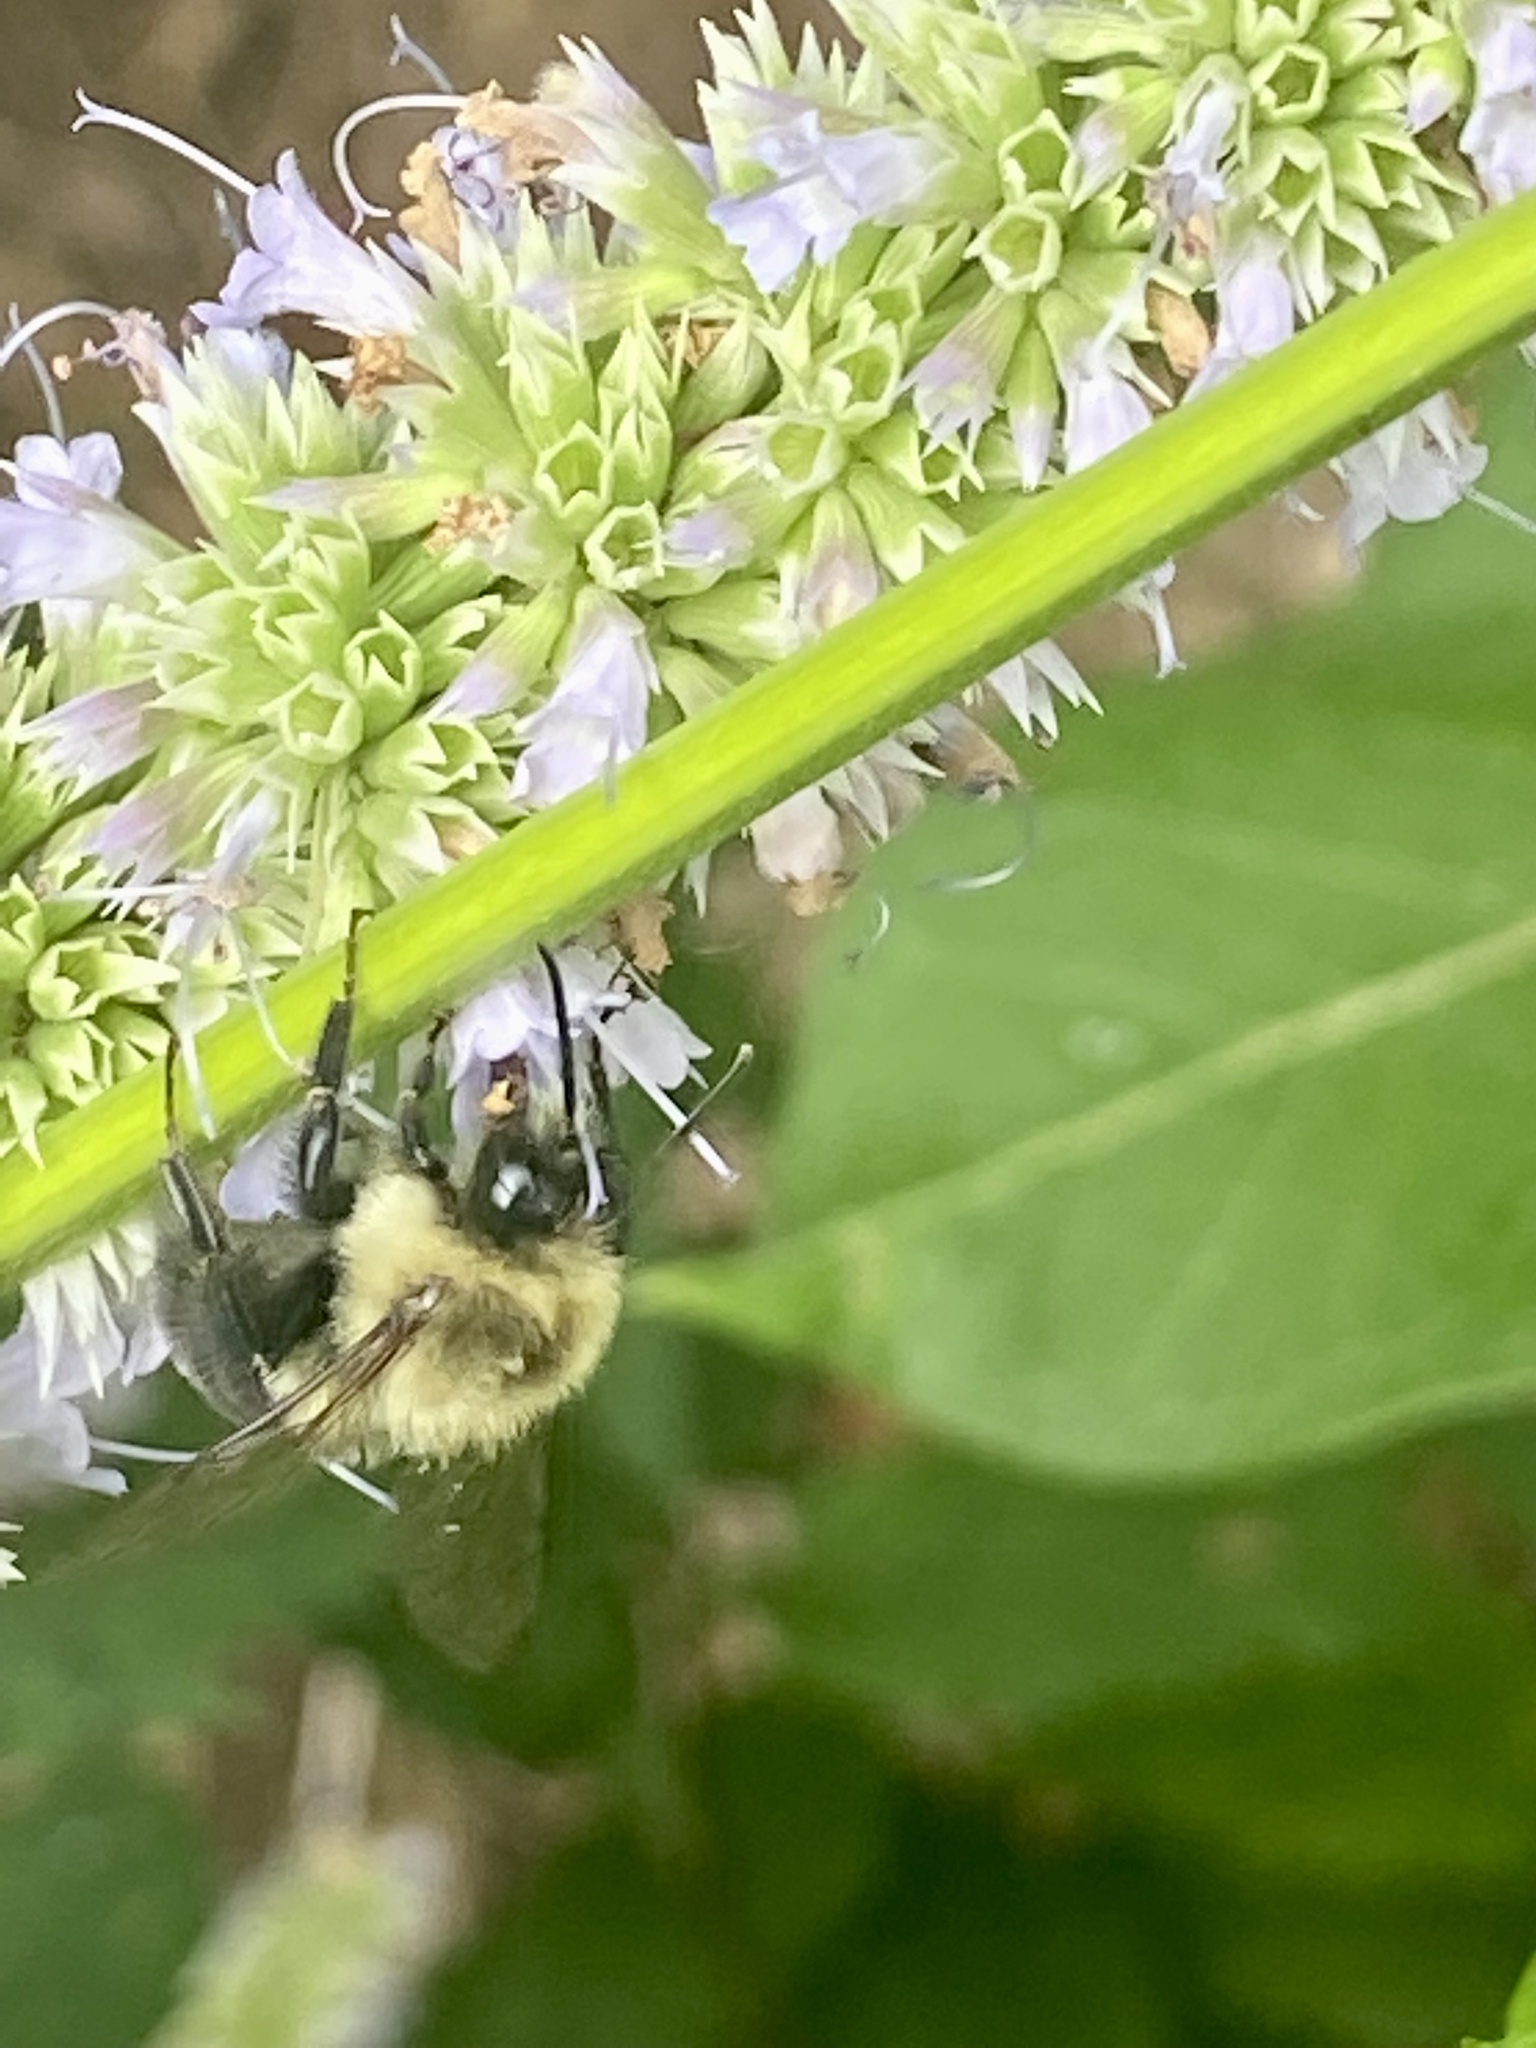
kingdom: Animalia
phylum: Arthropoda
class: Insecta
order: Hymenoptera
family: Apidae
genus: Bombus
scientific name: Bombus impatiens
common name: Common eastern bumble bee
